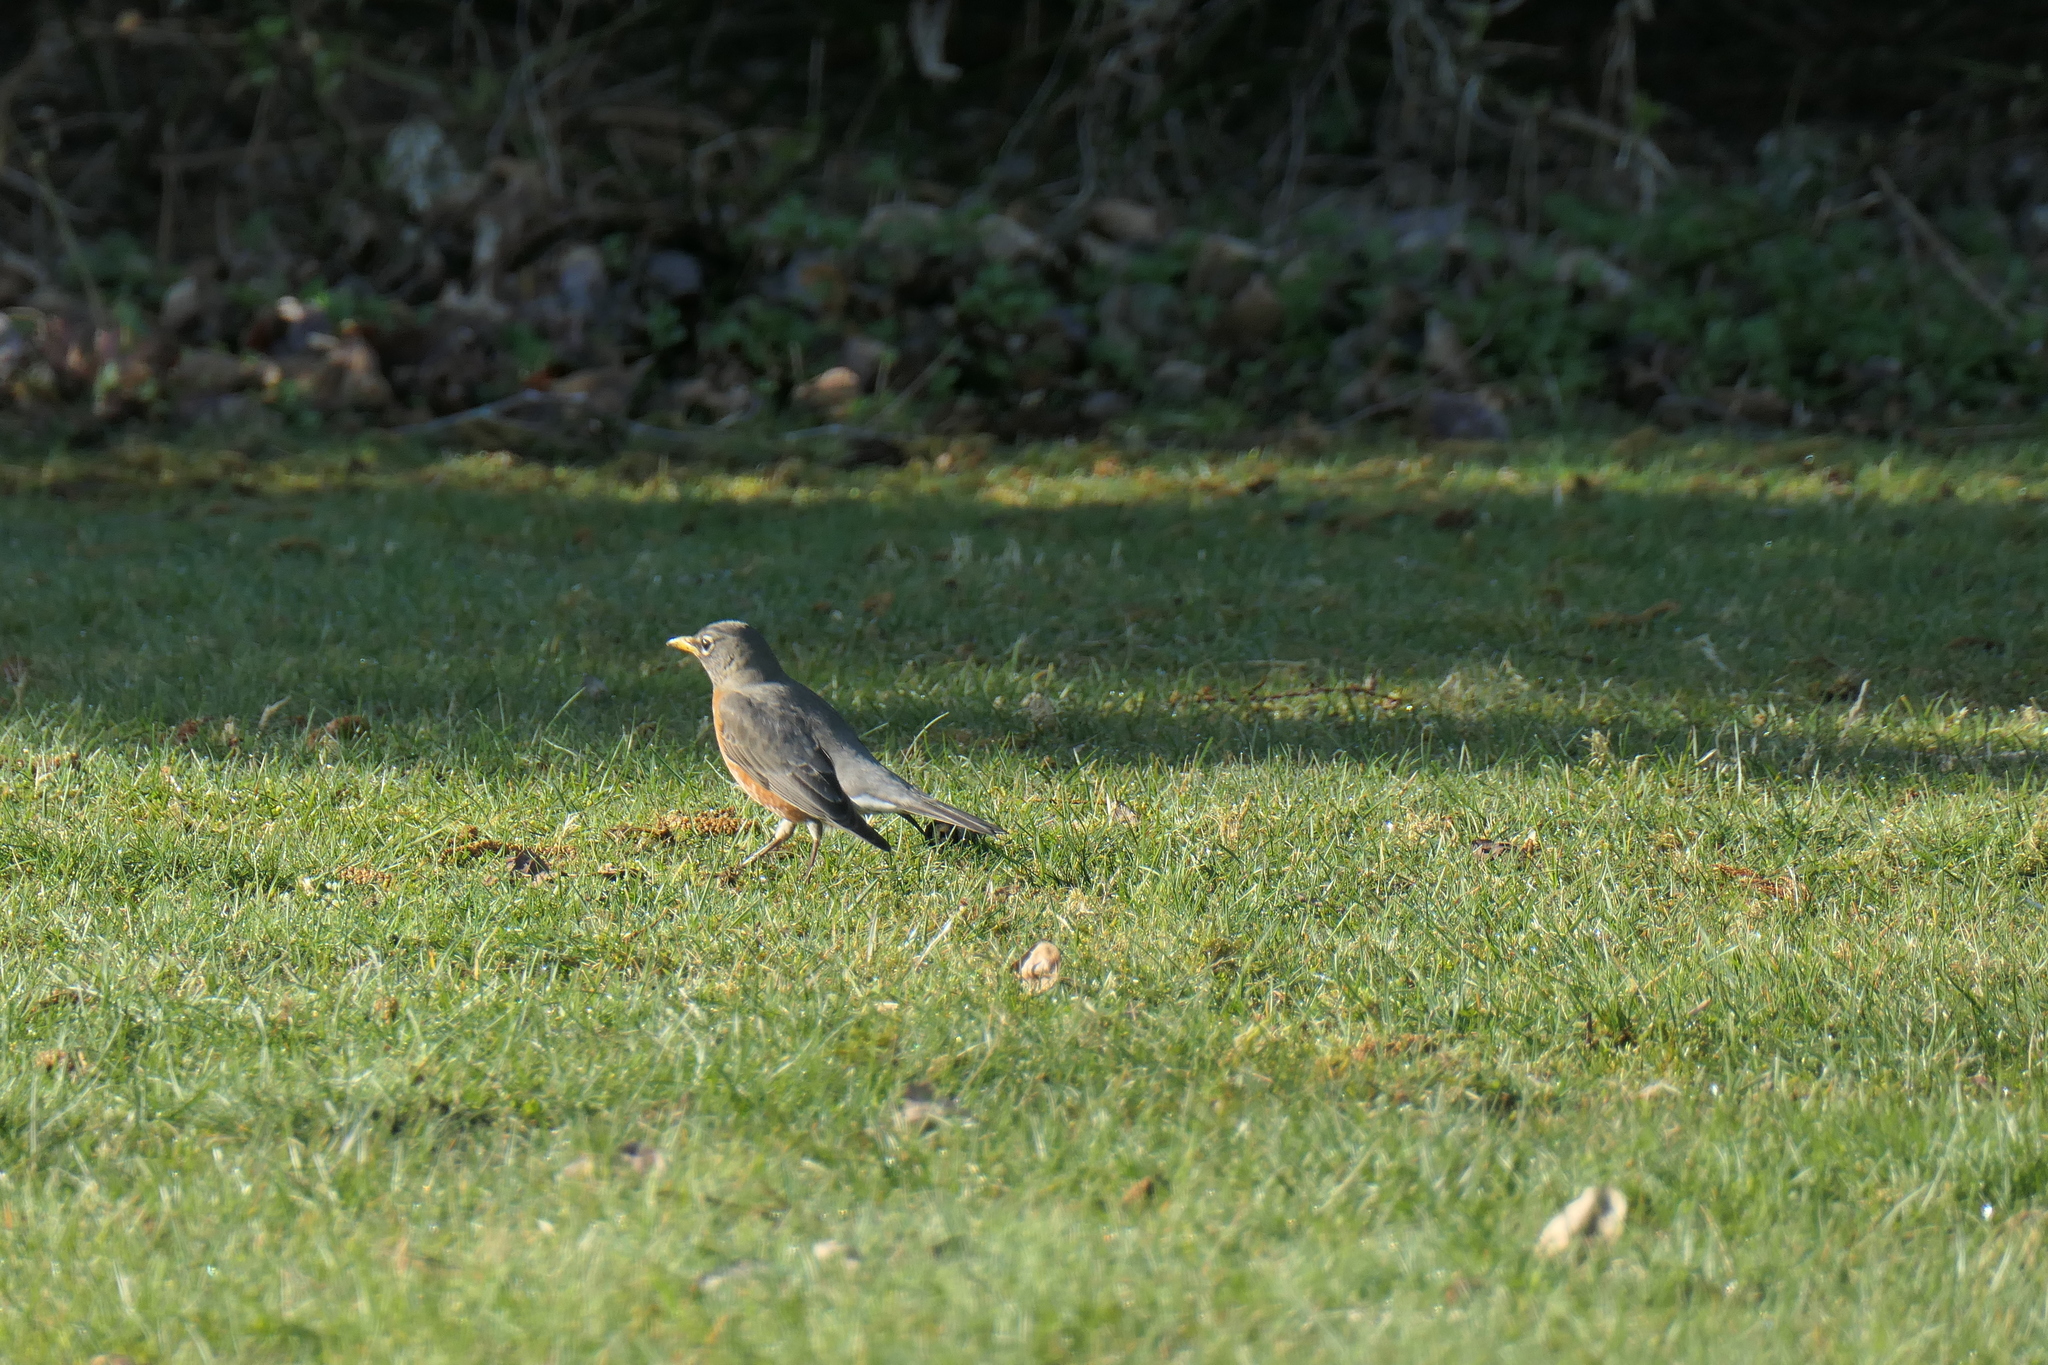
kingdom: Animalia
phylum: Chordata
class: Aves
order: Passeriformes
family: Turdidae
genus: Turdus
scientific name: Turdus migratorius
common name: American robin
